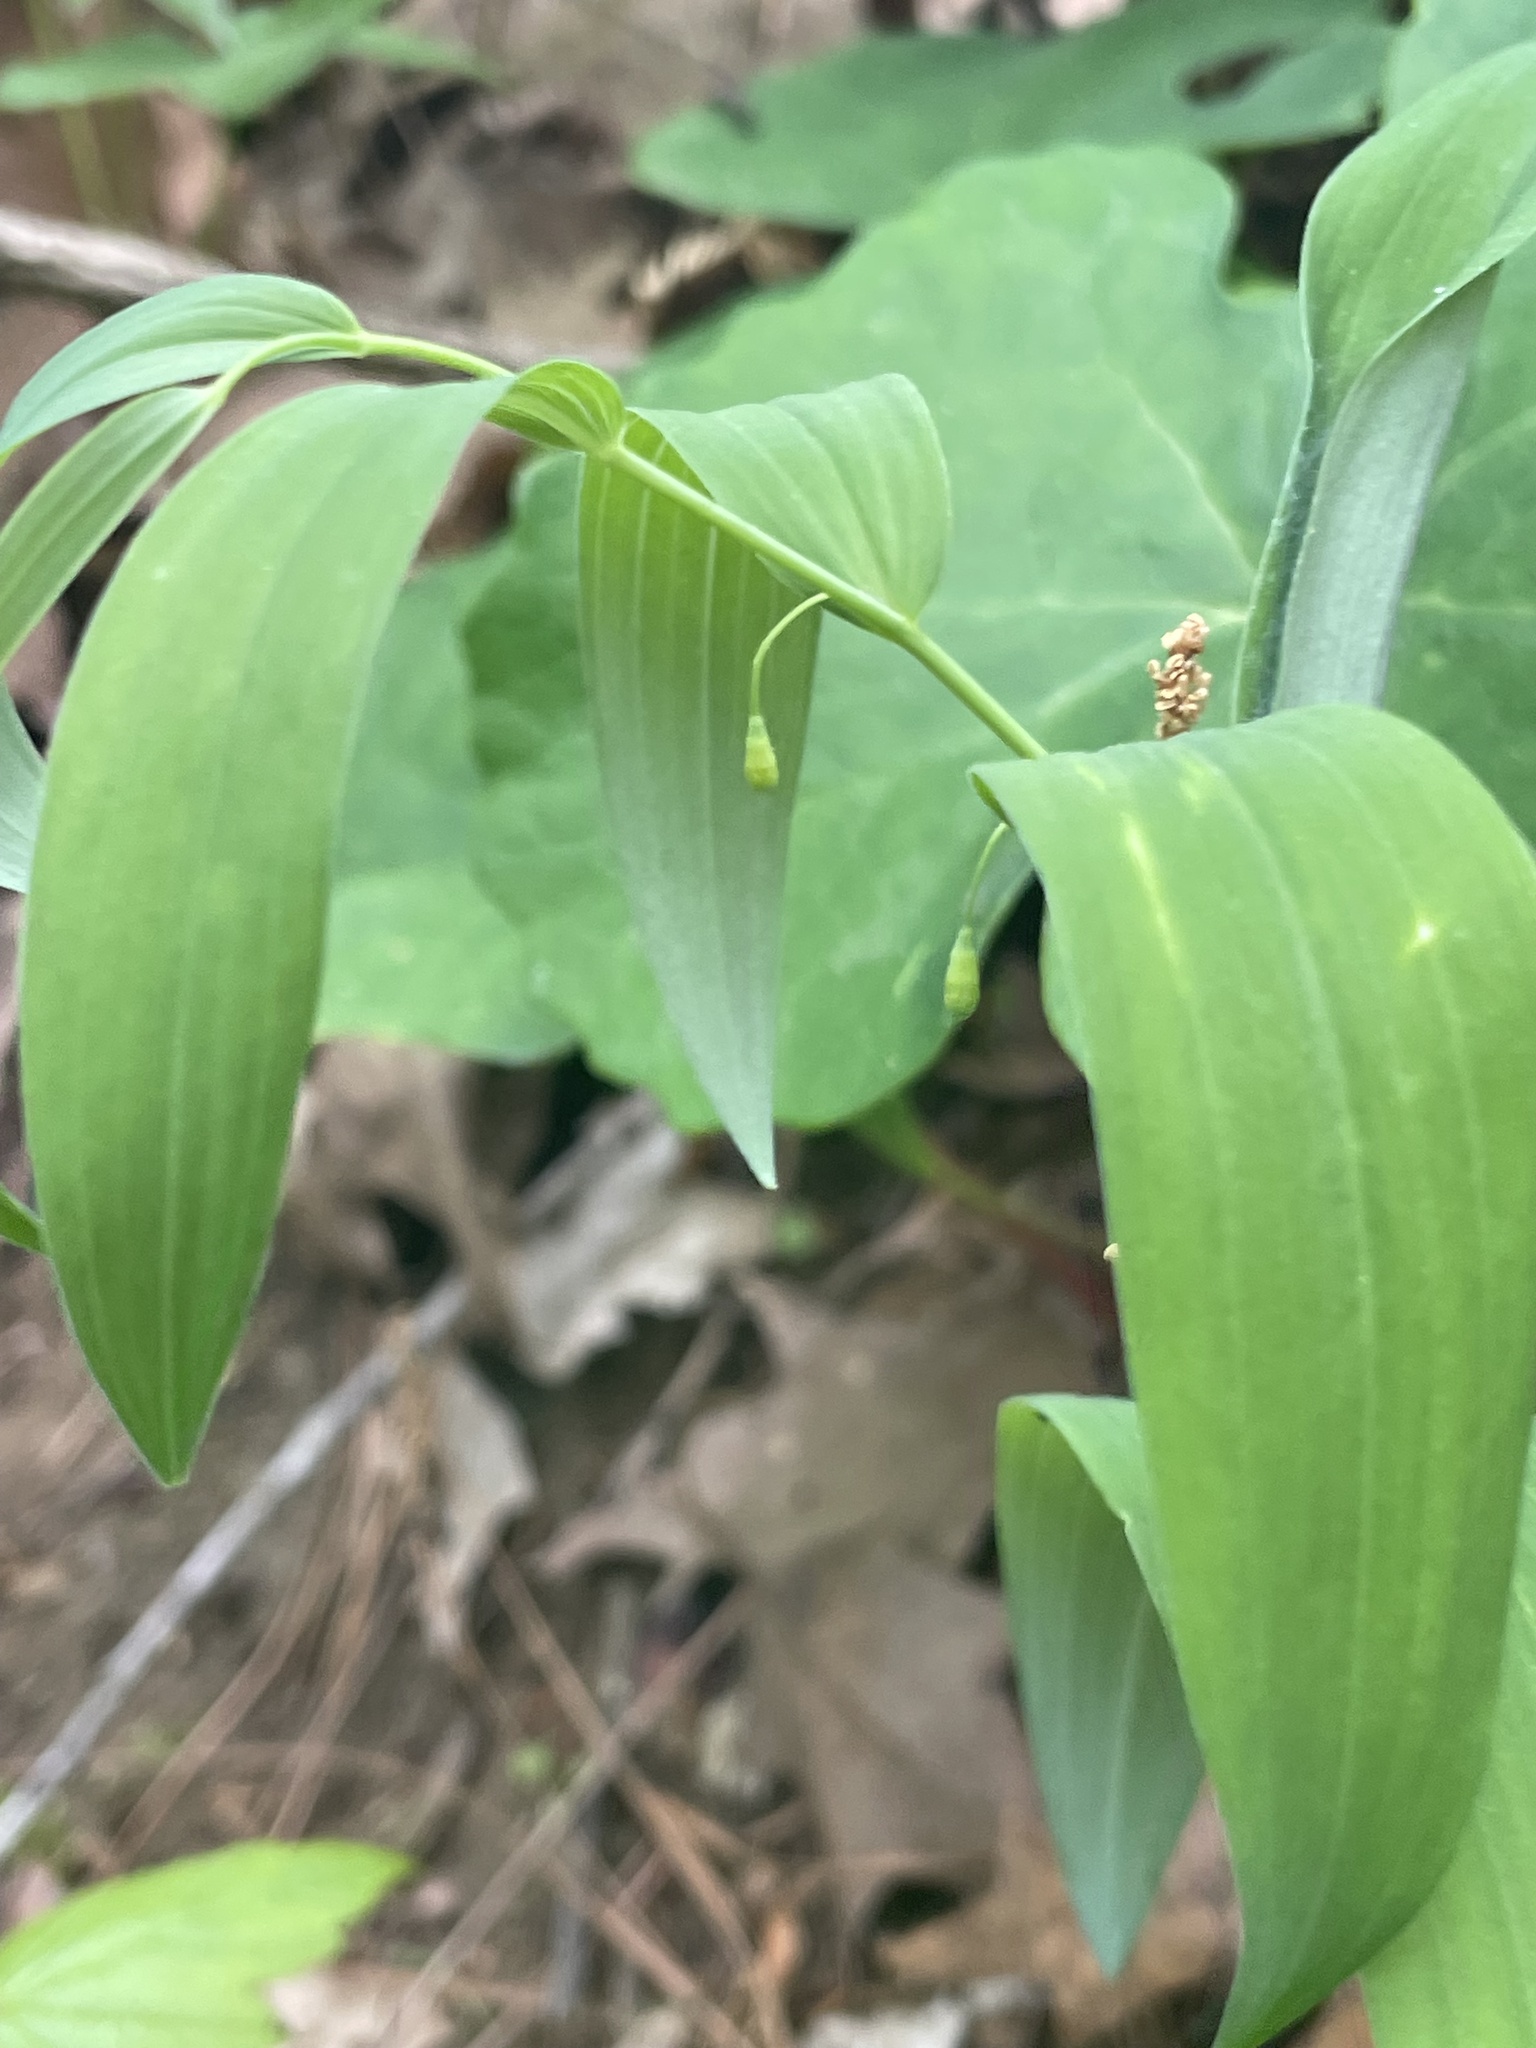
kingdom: Plantae
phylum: Tracheophyta
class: Liliopsida
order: Asparagales
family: Asparagaceae
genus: Polygonatum
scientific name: Polygonatum biflorum
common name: American solomon's-seal
